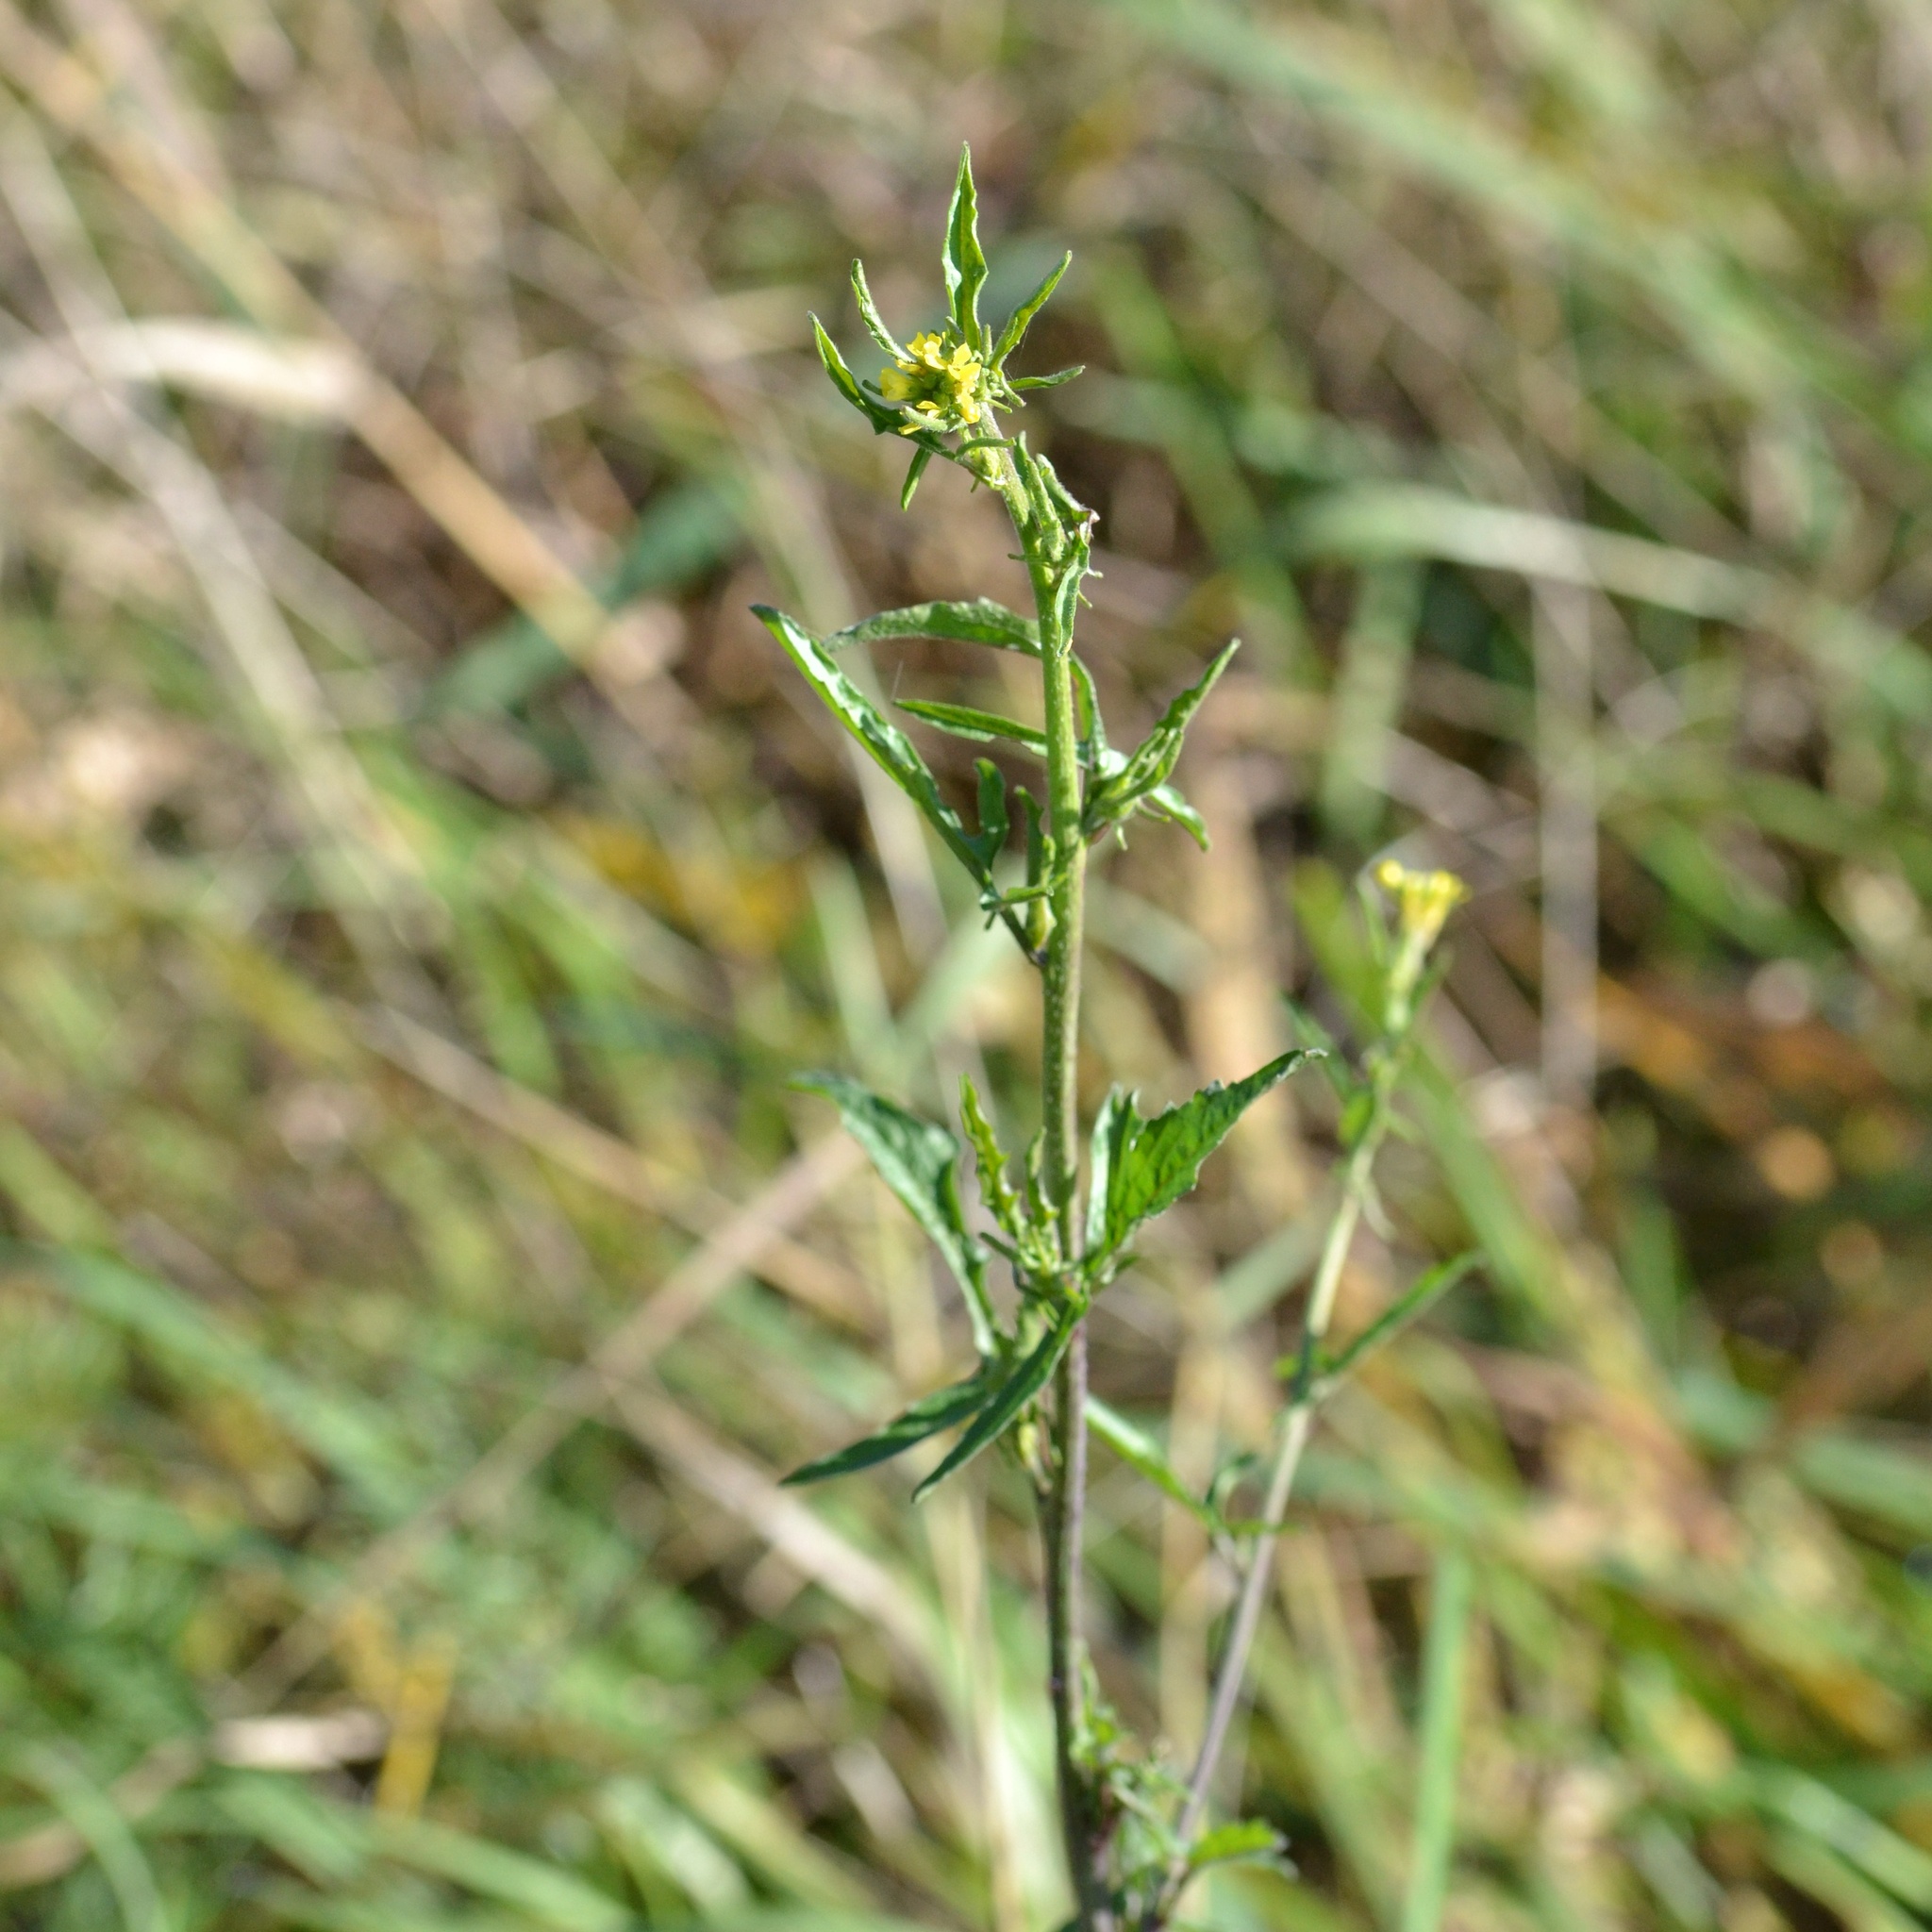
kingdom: Plantae
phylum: Tracheophyta
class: Magnoliopsida
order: Brassicales
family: Brassicaceae
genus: Sisymbrium
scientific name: Sisymbrium officinale
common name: Hedge mustard
